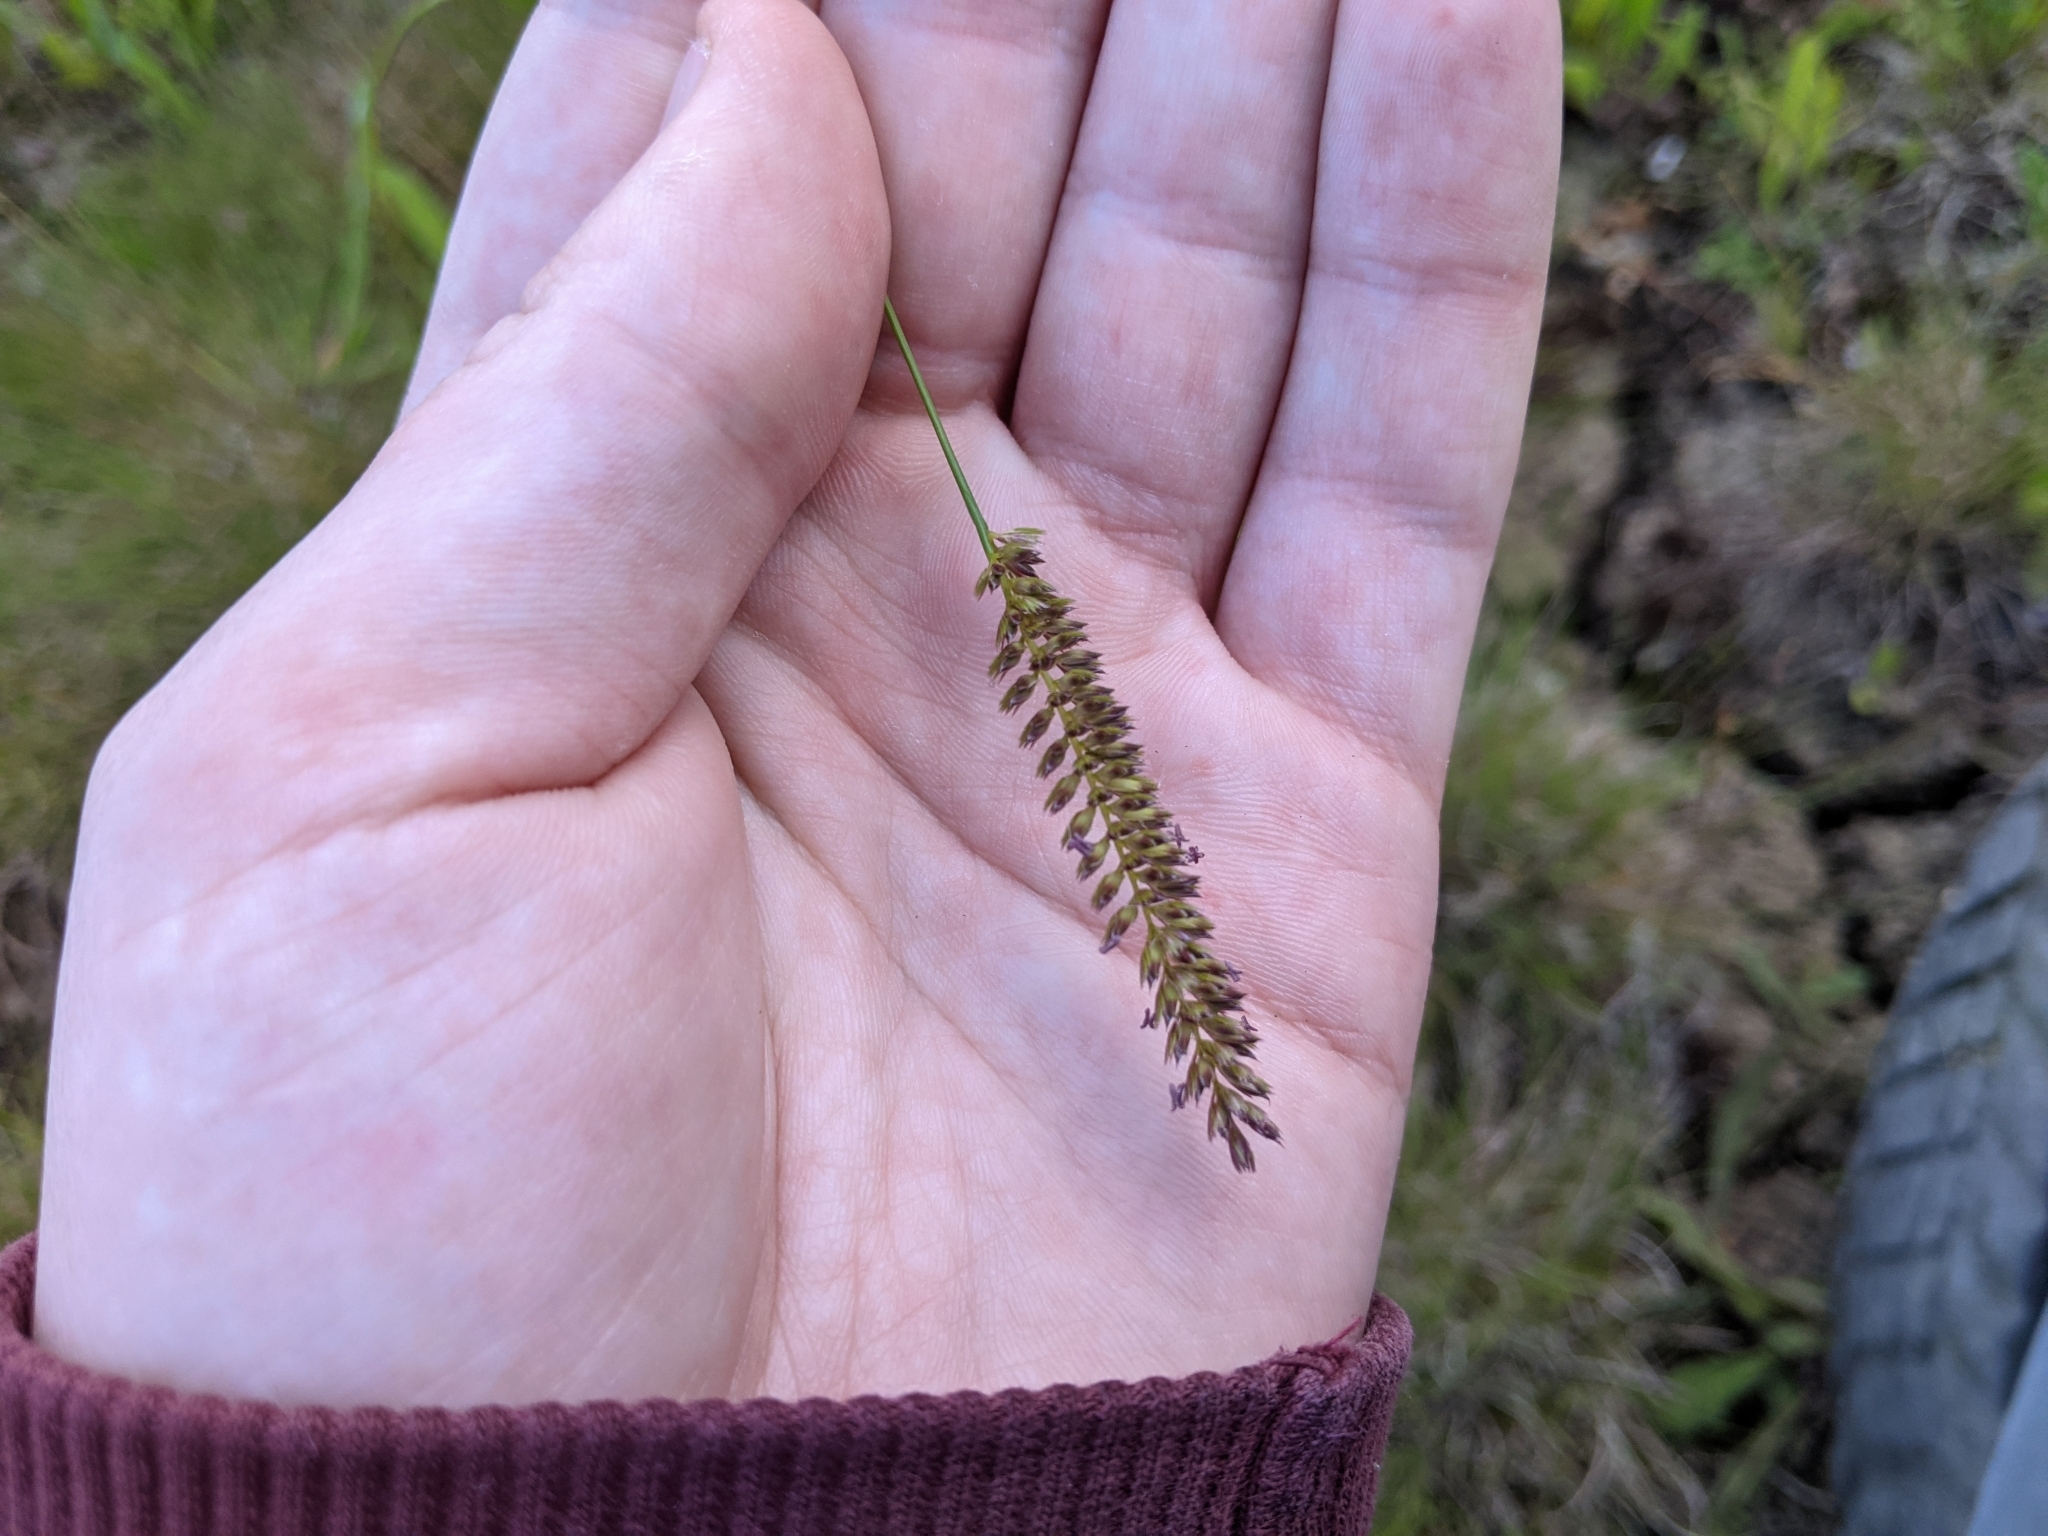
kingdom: Plantae
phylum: Tracheophyta
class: Liliopsida
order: Poales
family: Poaceae
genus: Cynosurus
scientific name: Cynosurus cristatus
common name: Crested dog's-tail
